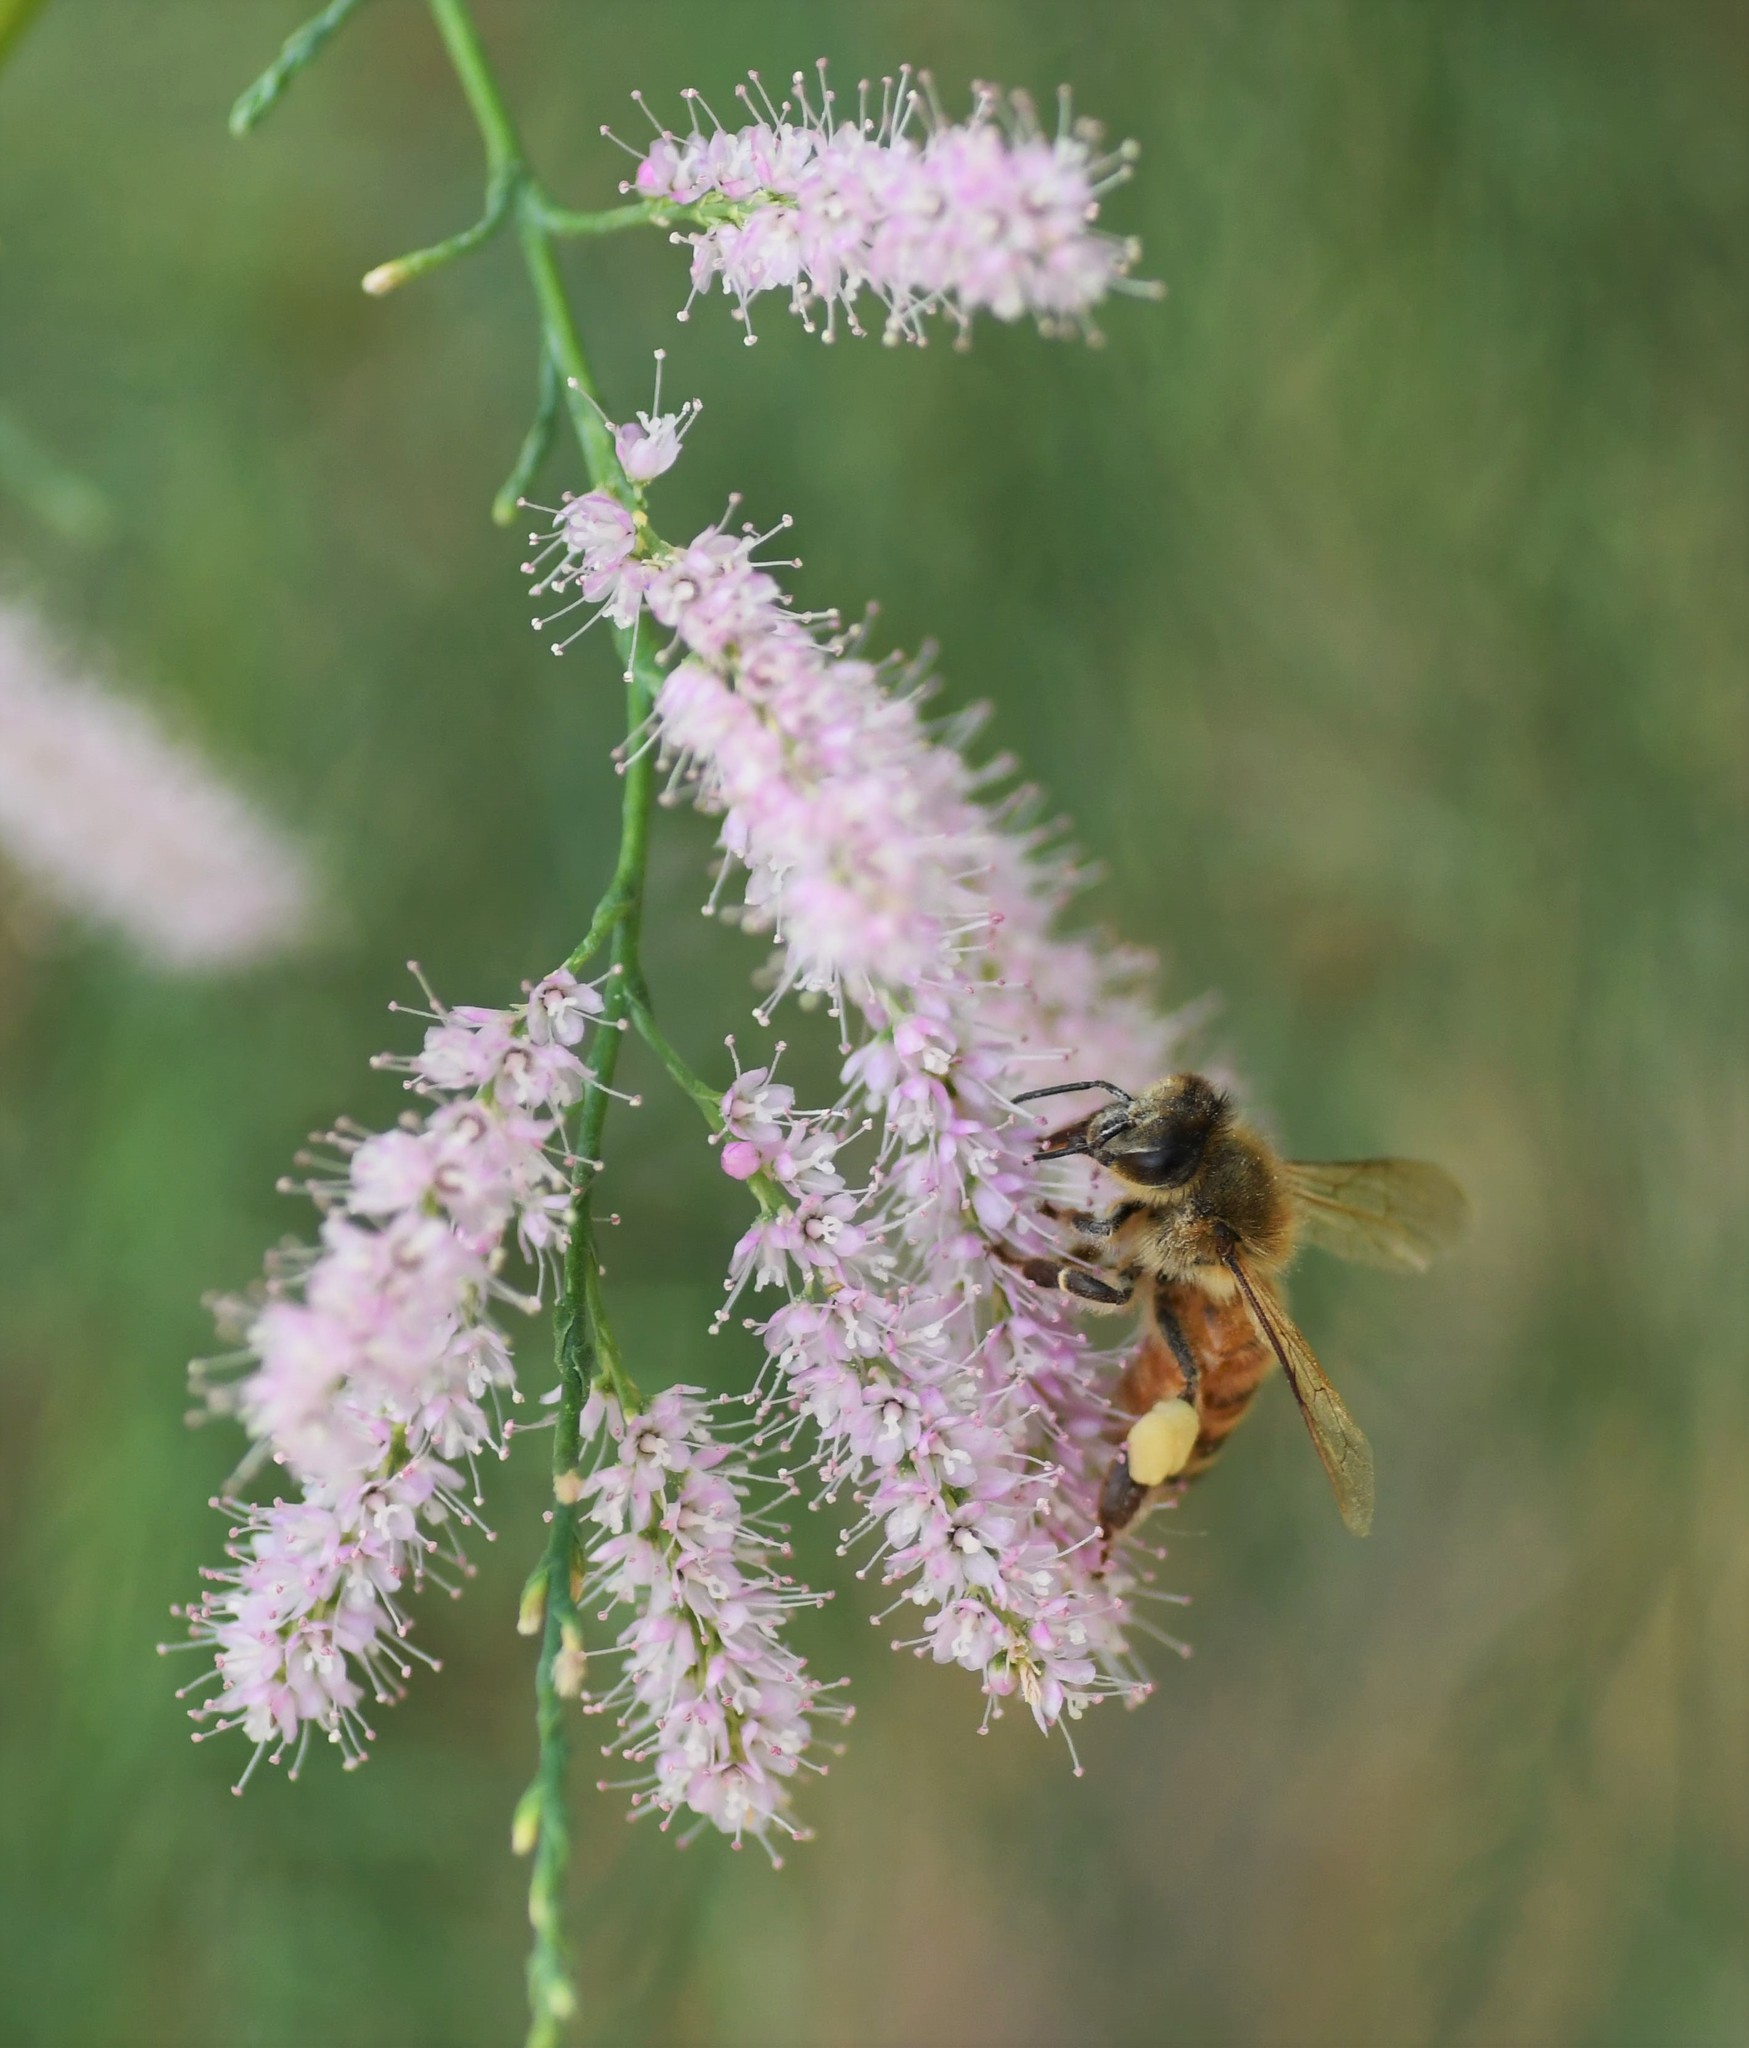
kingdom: Animalia
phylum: Arthropoda
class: Insecta
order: Hymenoptera
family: Apidae
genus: Apis
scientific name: Apis mellifera
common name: Honey bee
